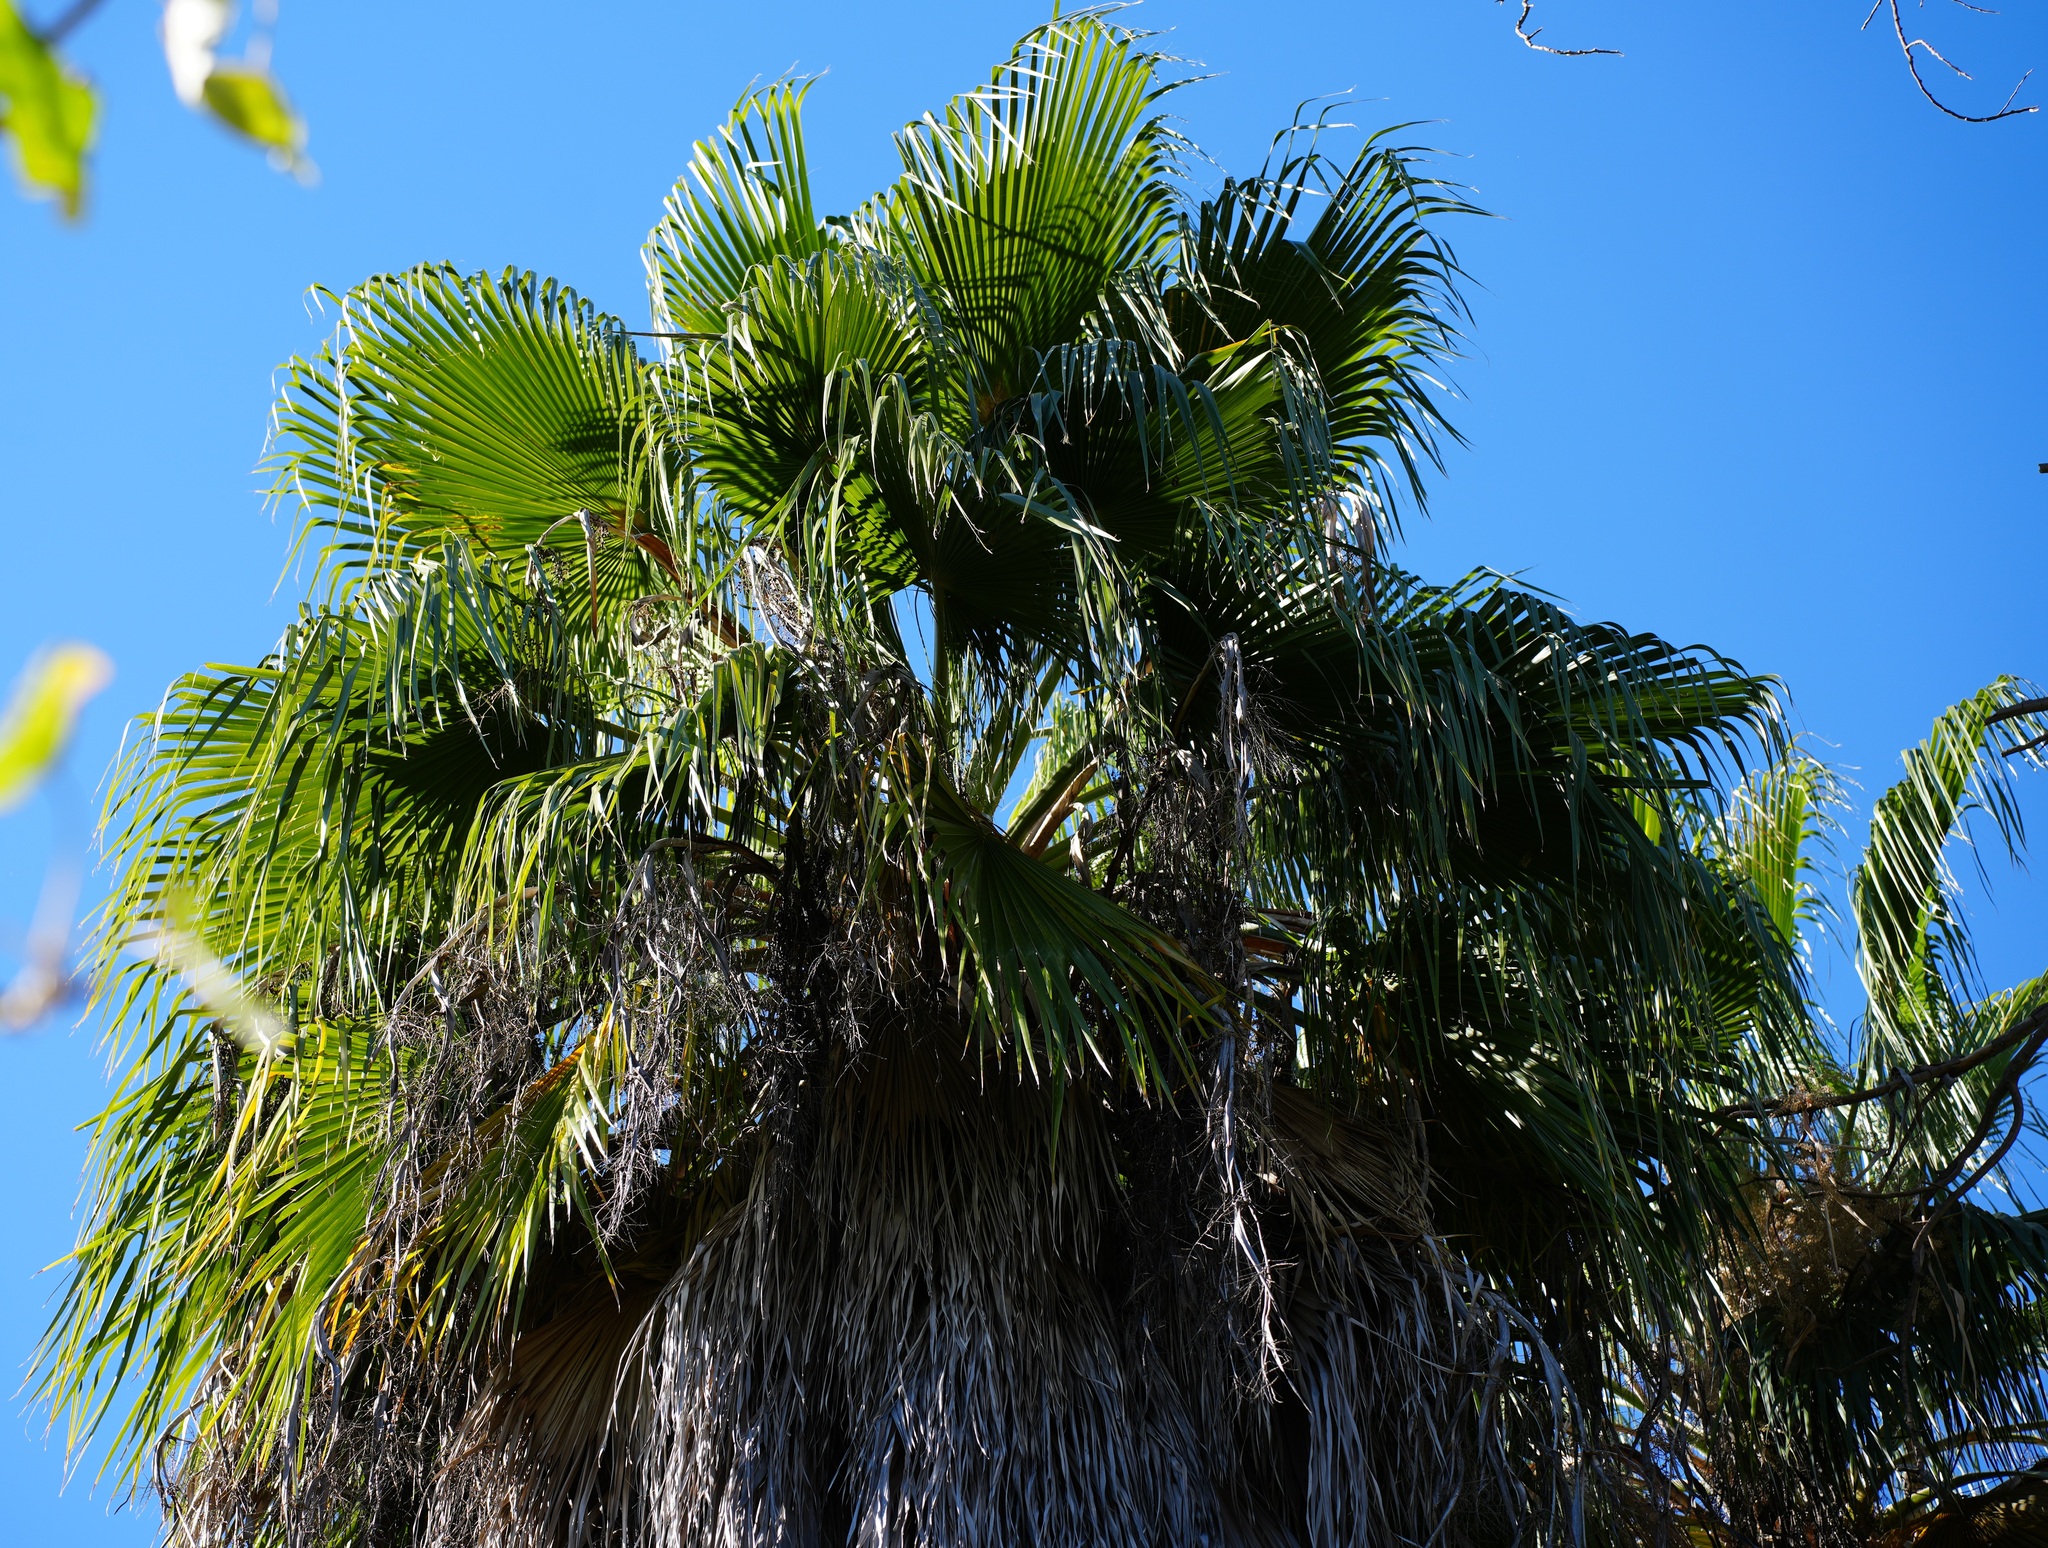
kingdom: Plantae
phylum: Tracheophyta
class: Liliopsida
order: Arecales
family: Arecaceae
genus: Washingtonia
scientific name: Washingtonia robusta
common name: Mexican fan palm
